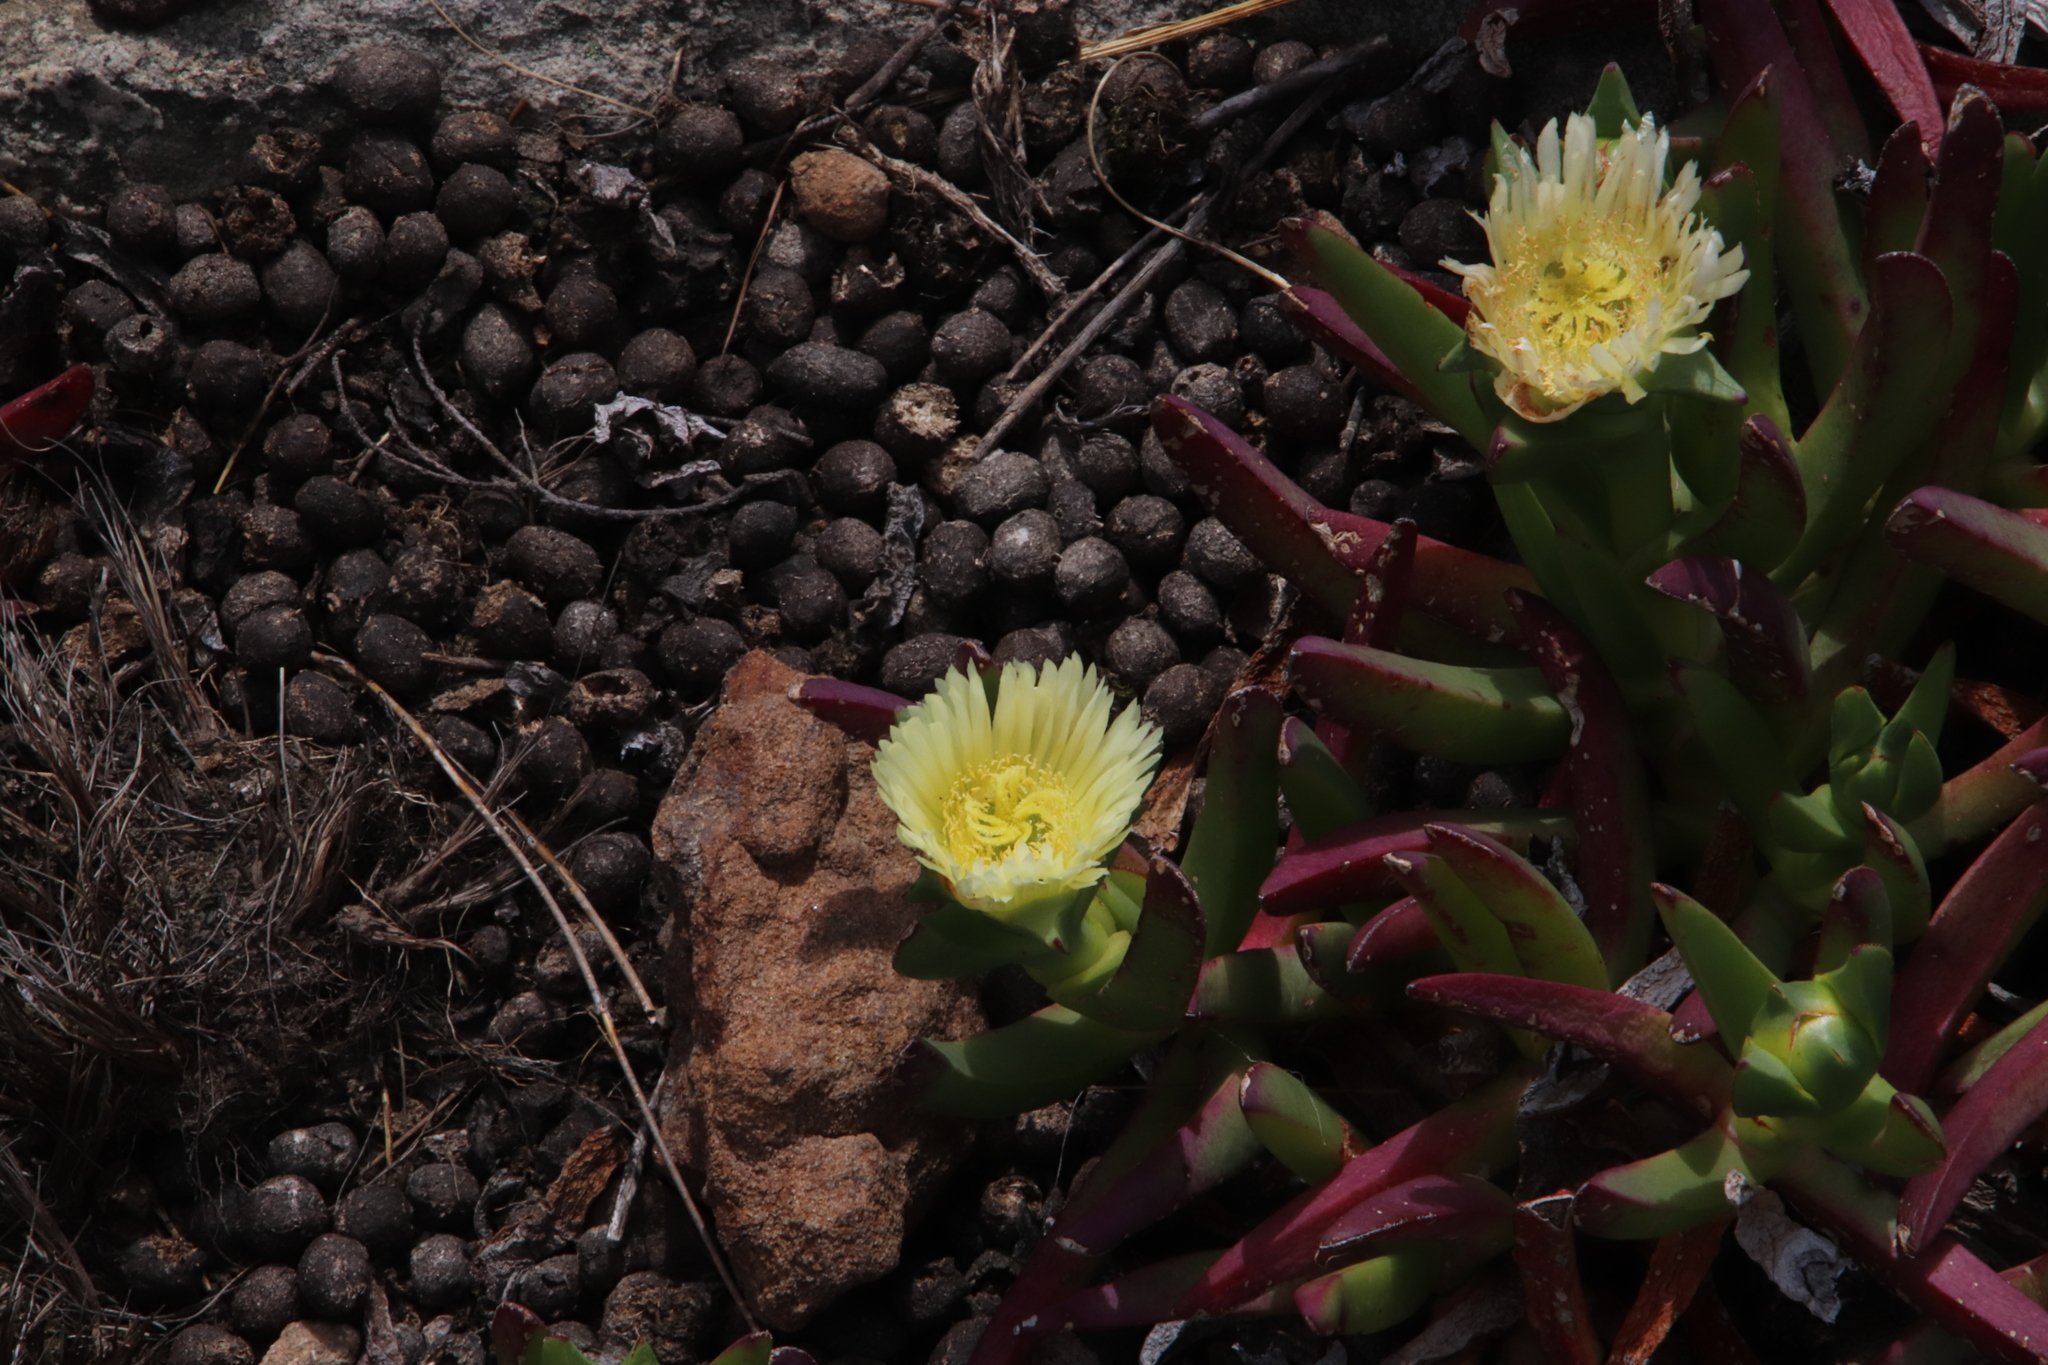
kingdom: Plantae
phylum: Tracheophyta
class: Magnoliopsida
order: Caryophyllales
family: Aizoaceae
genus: Carpobrotus
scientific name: Carpobrotus edulis
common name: Hottentot-fig
